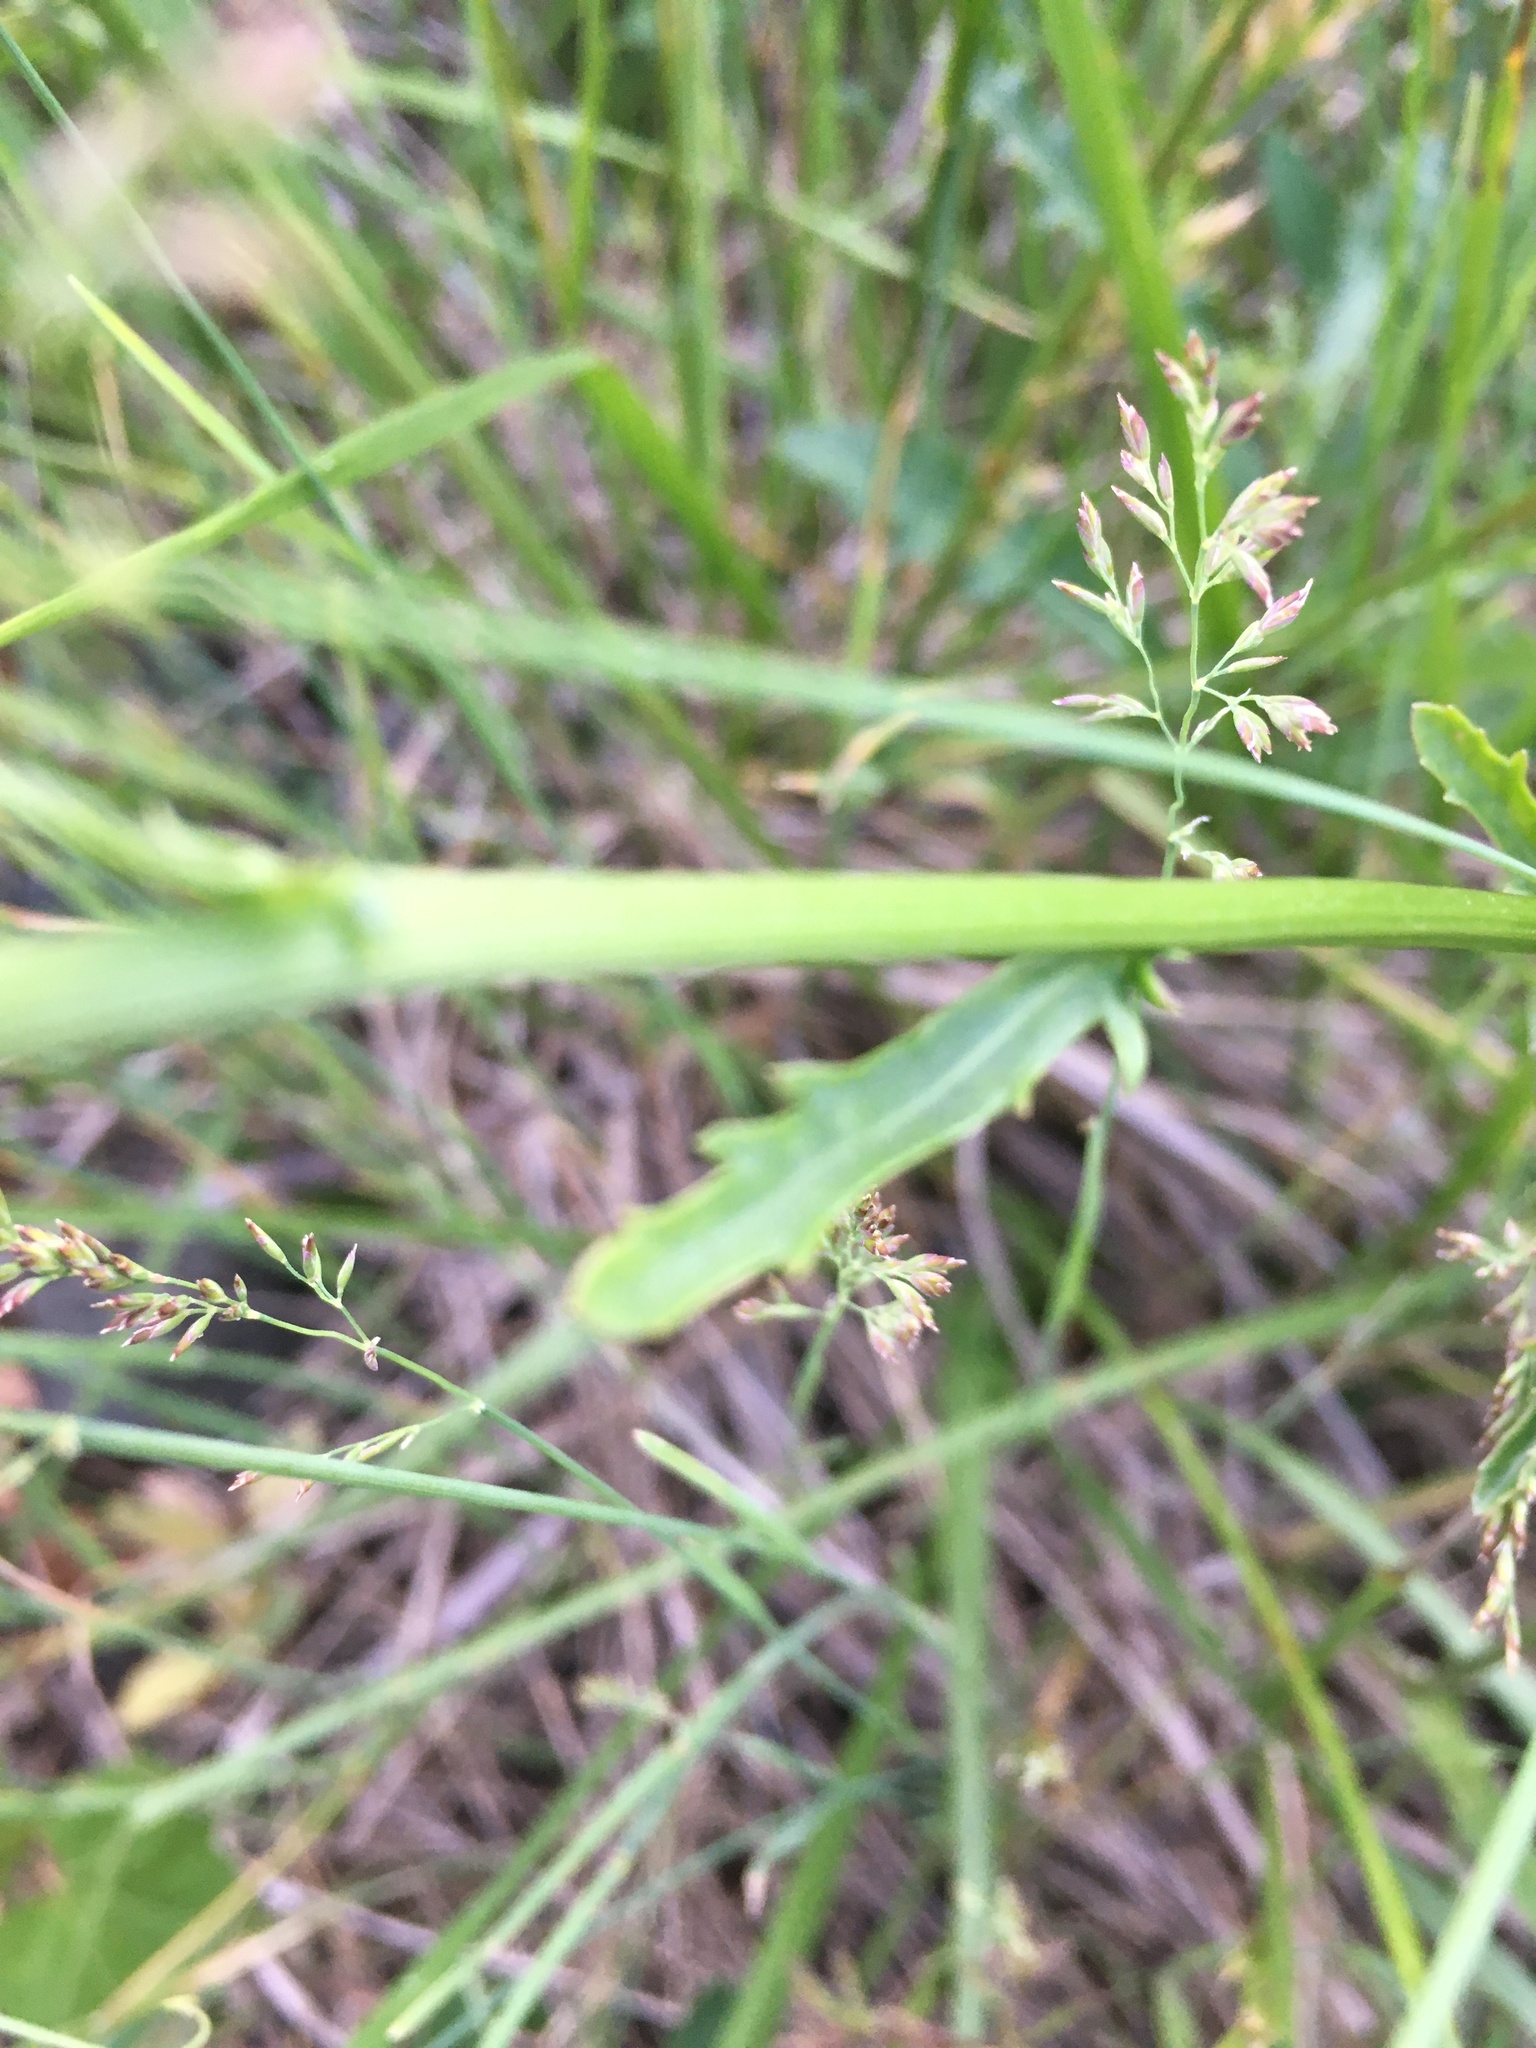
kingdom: Plantae
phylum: Tracheophyta
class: Magnoliopsida
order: Asterales
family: Asteraceae
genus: Leucanthemum
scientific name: Leucanthemum vulgare
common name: Oxeye daisy
